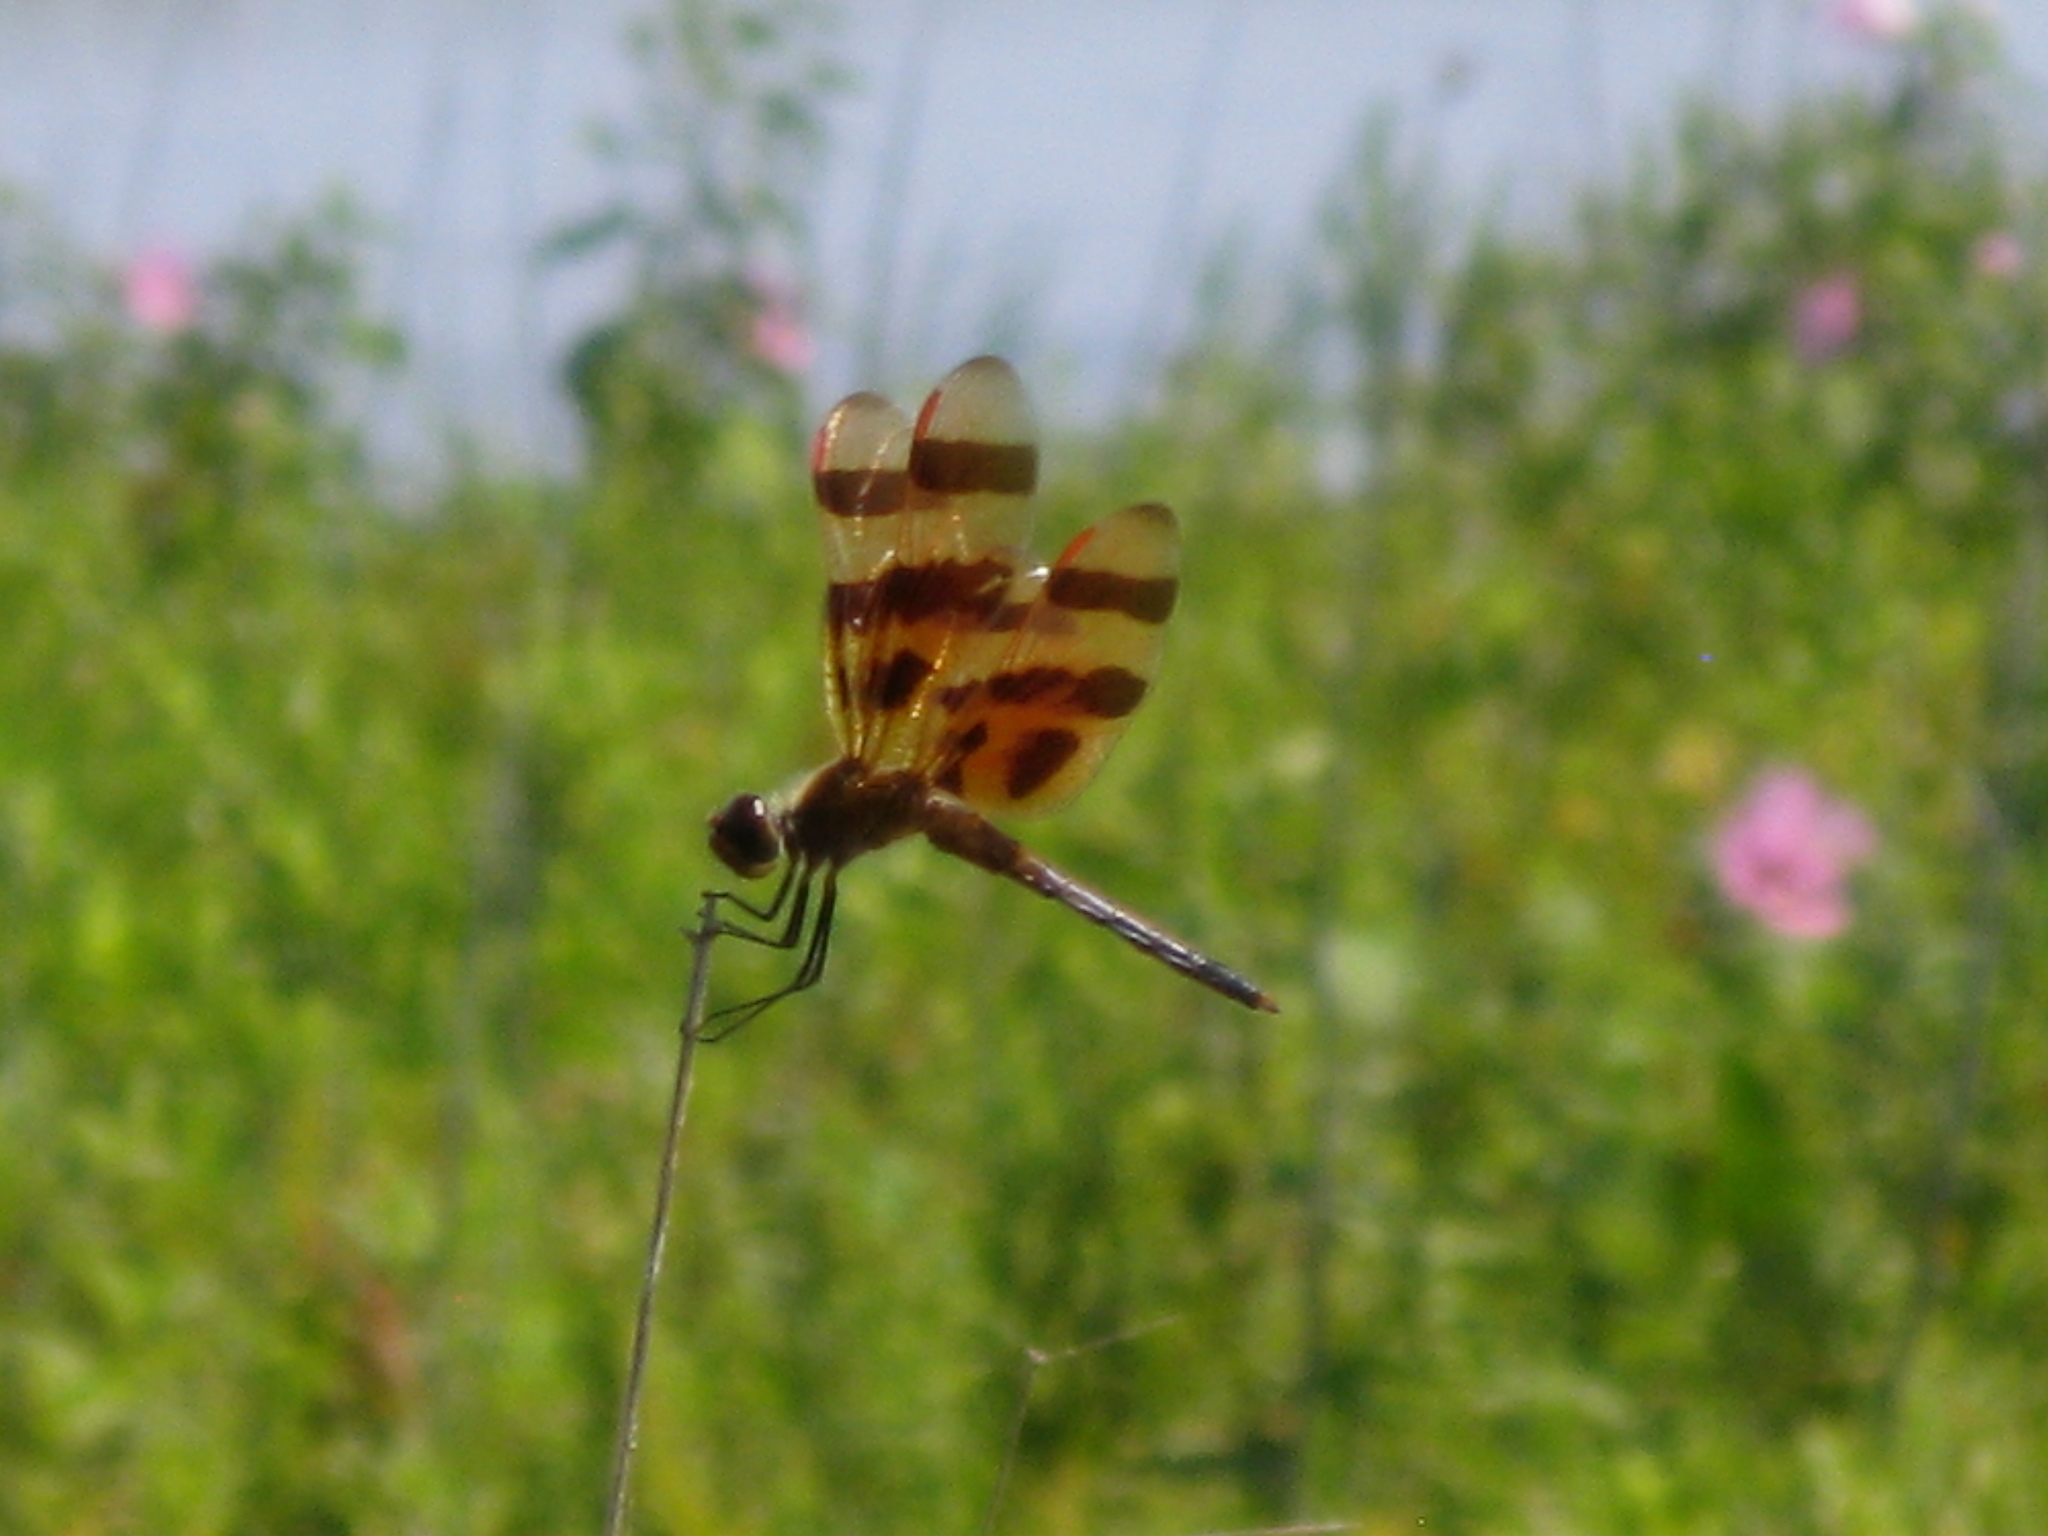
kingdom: Animalia
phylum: Arthropoda
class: Insecta
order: Odonata
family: Libellulidae
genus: Celithemis
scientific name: Celithemis eponina
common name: Halloween pennant
